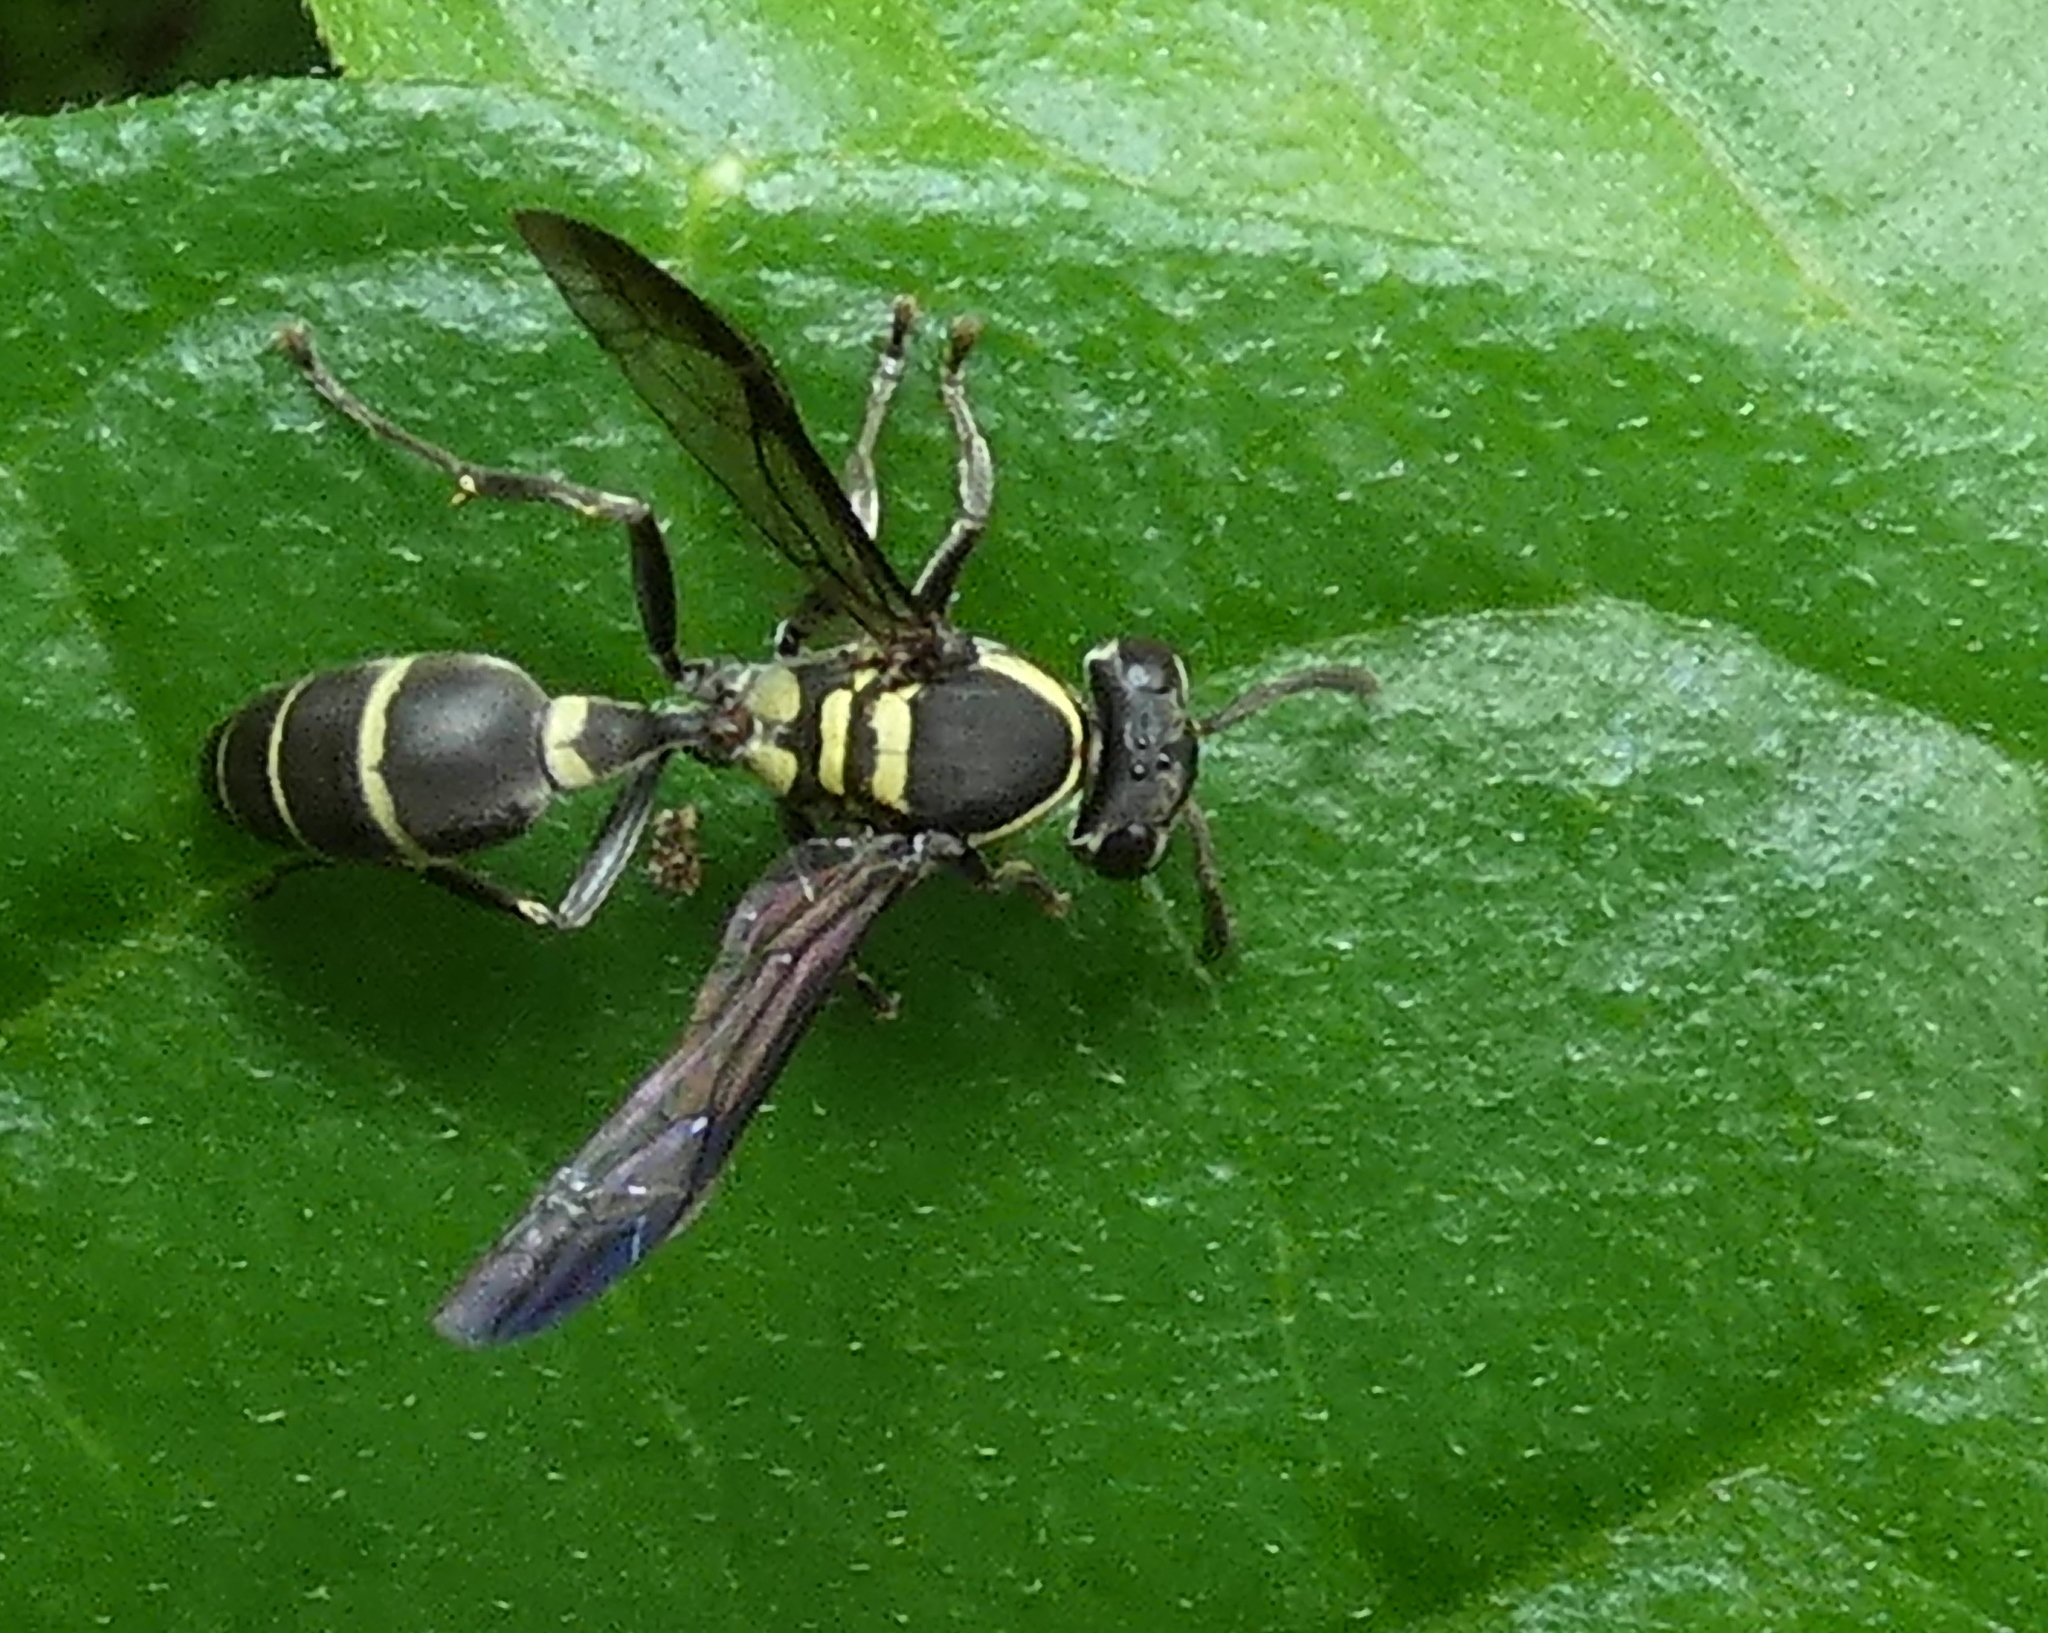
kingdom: Animalia
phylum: Arthropoda
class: Insecta
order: Hymenoptera
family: Eumenidae
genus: Polybia
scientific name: Polybia occidentalis
